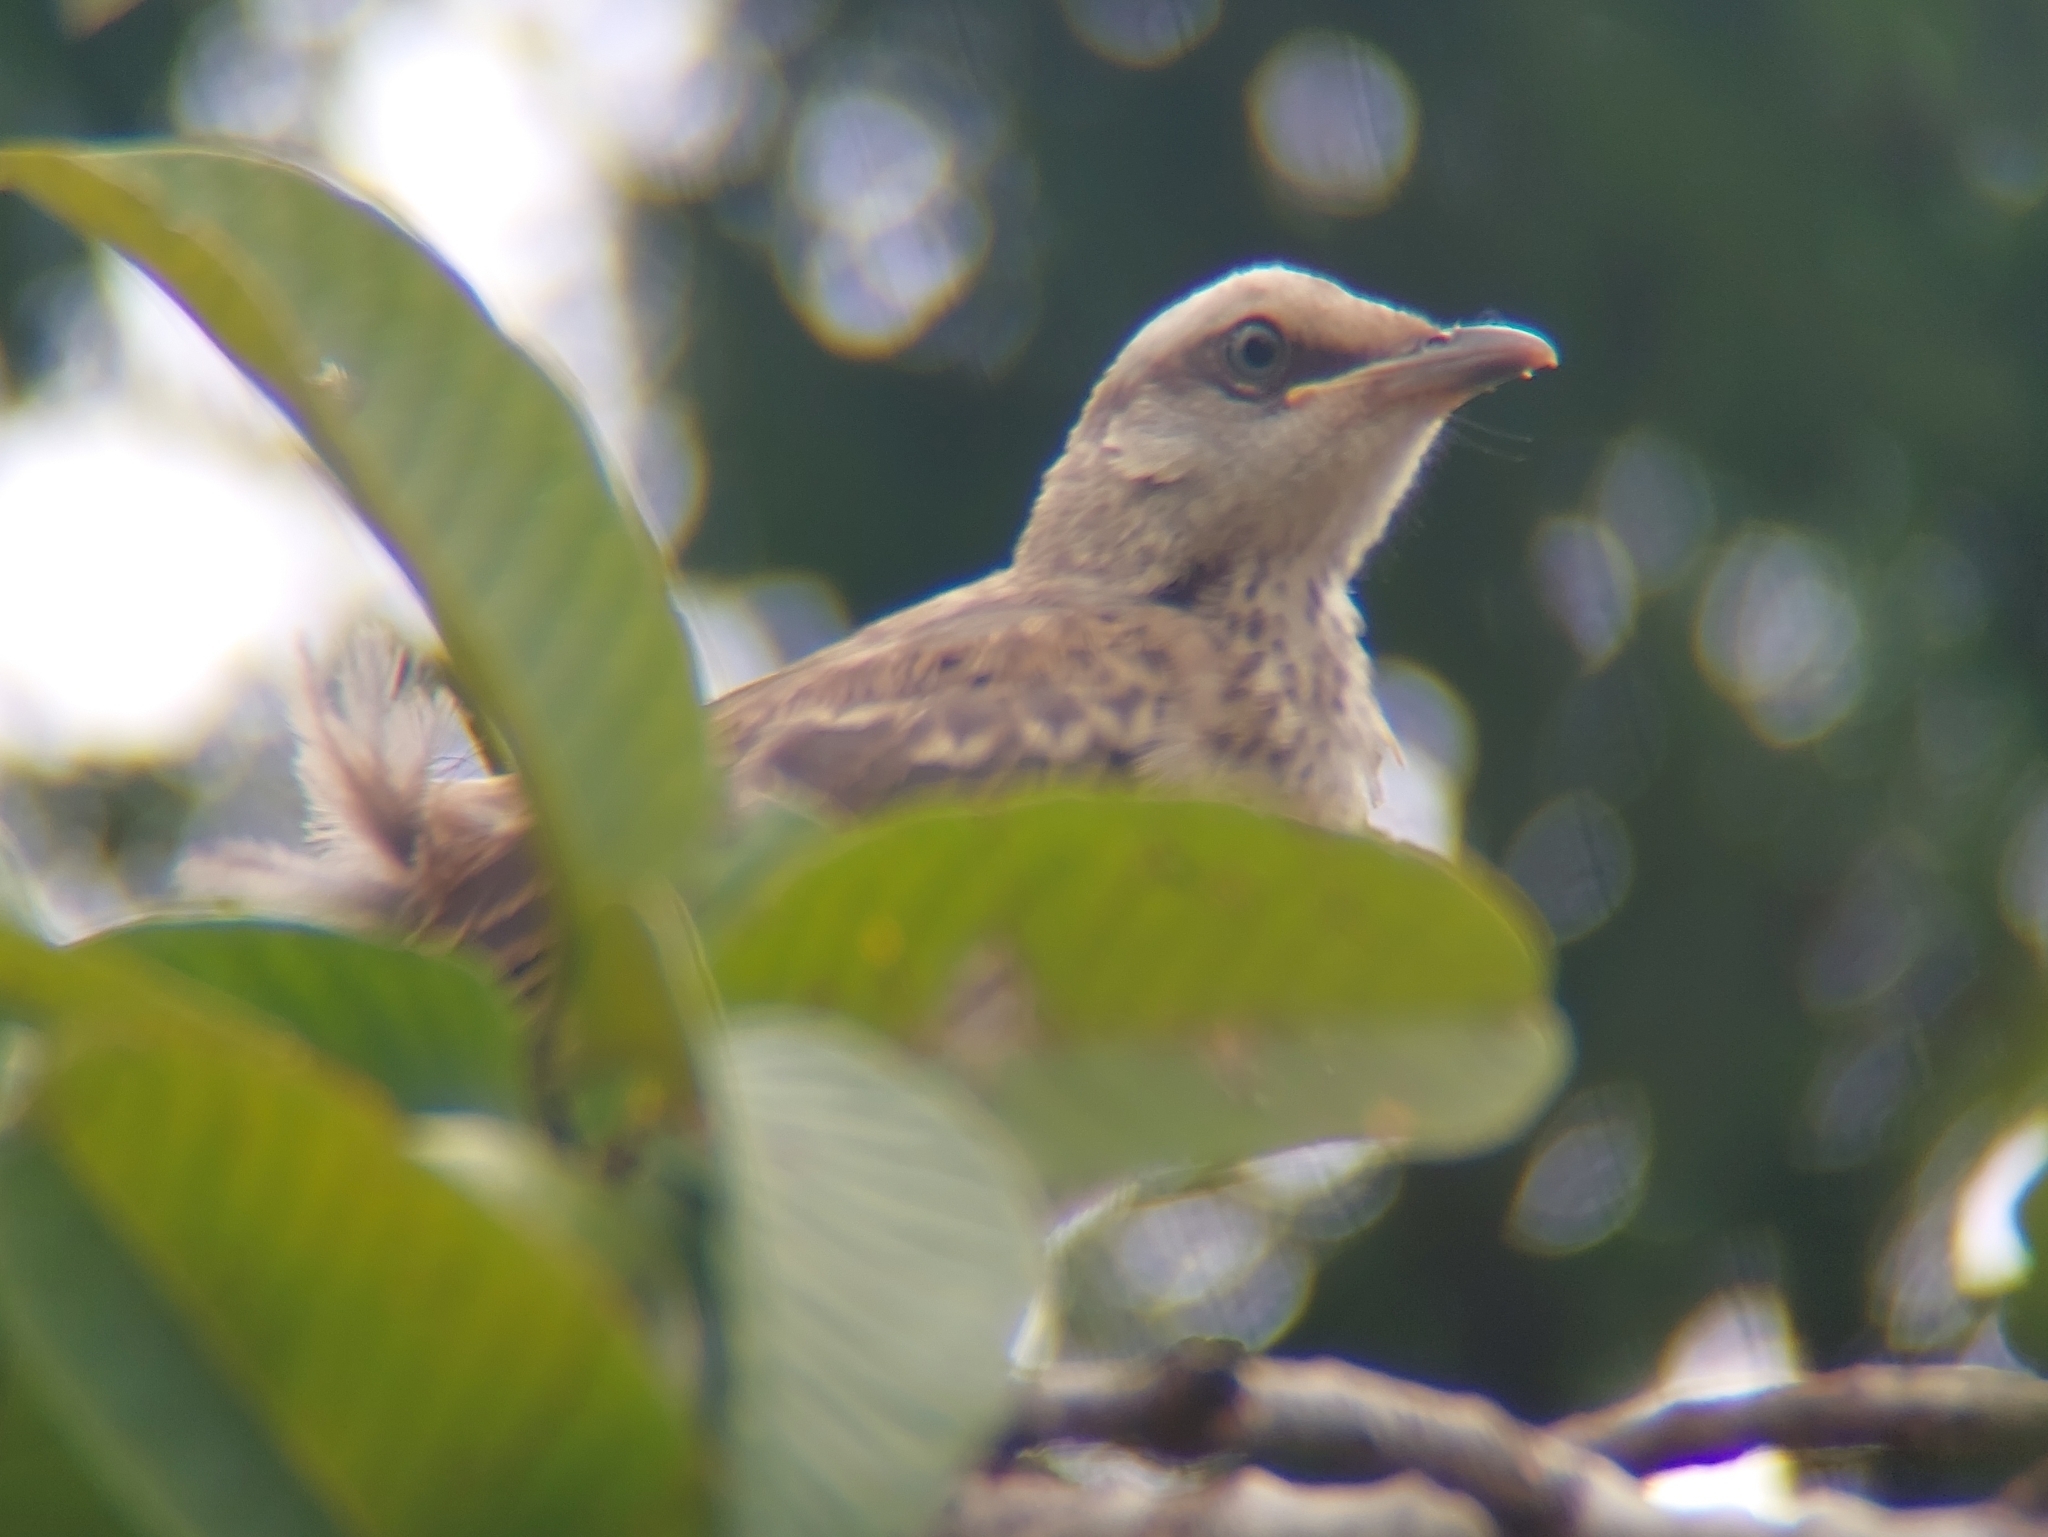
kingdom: Animalia
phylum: Chordata
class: Aves
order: Passeriformes
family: Mimidae
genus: Mimus
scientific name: Mimus saturninus
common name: Chalk-browed mockingbird
